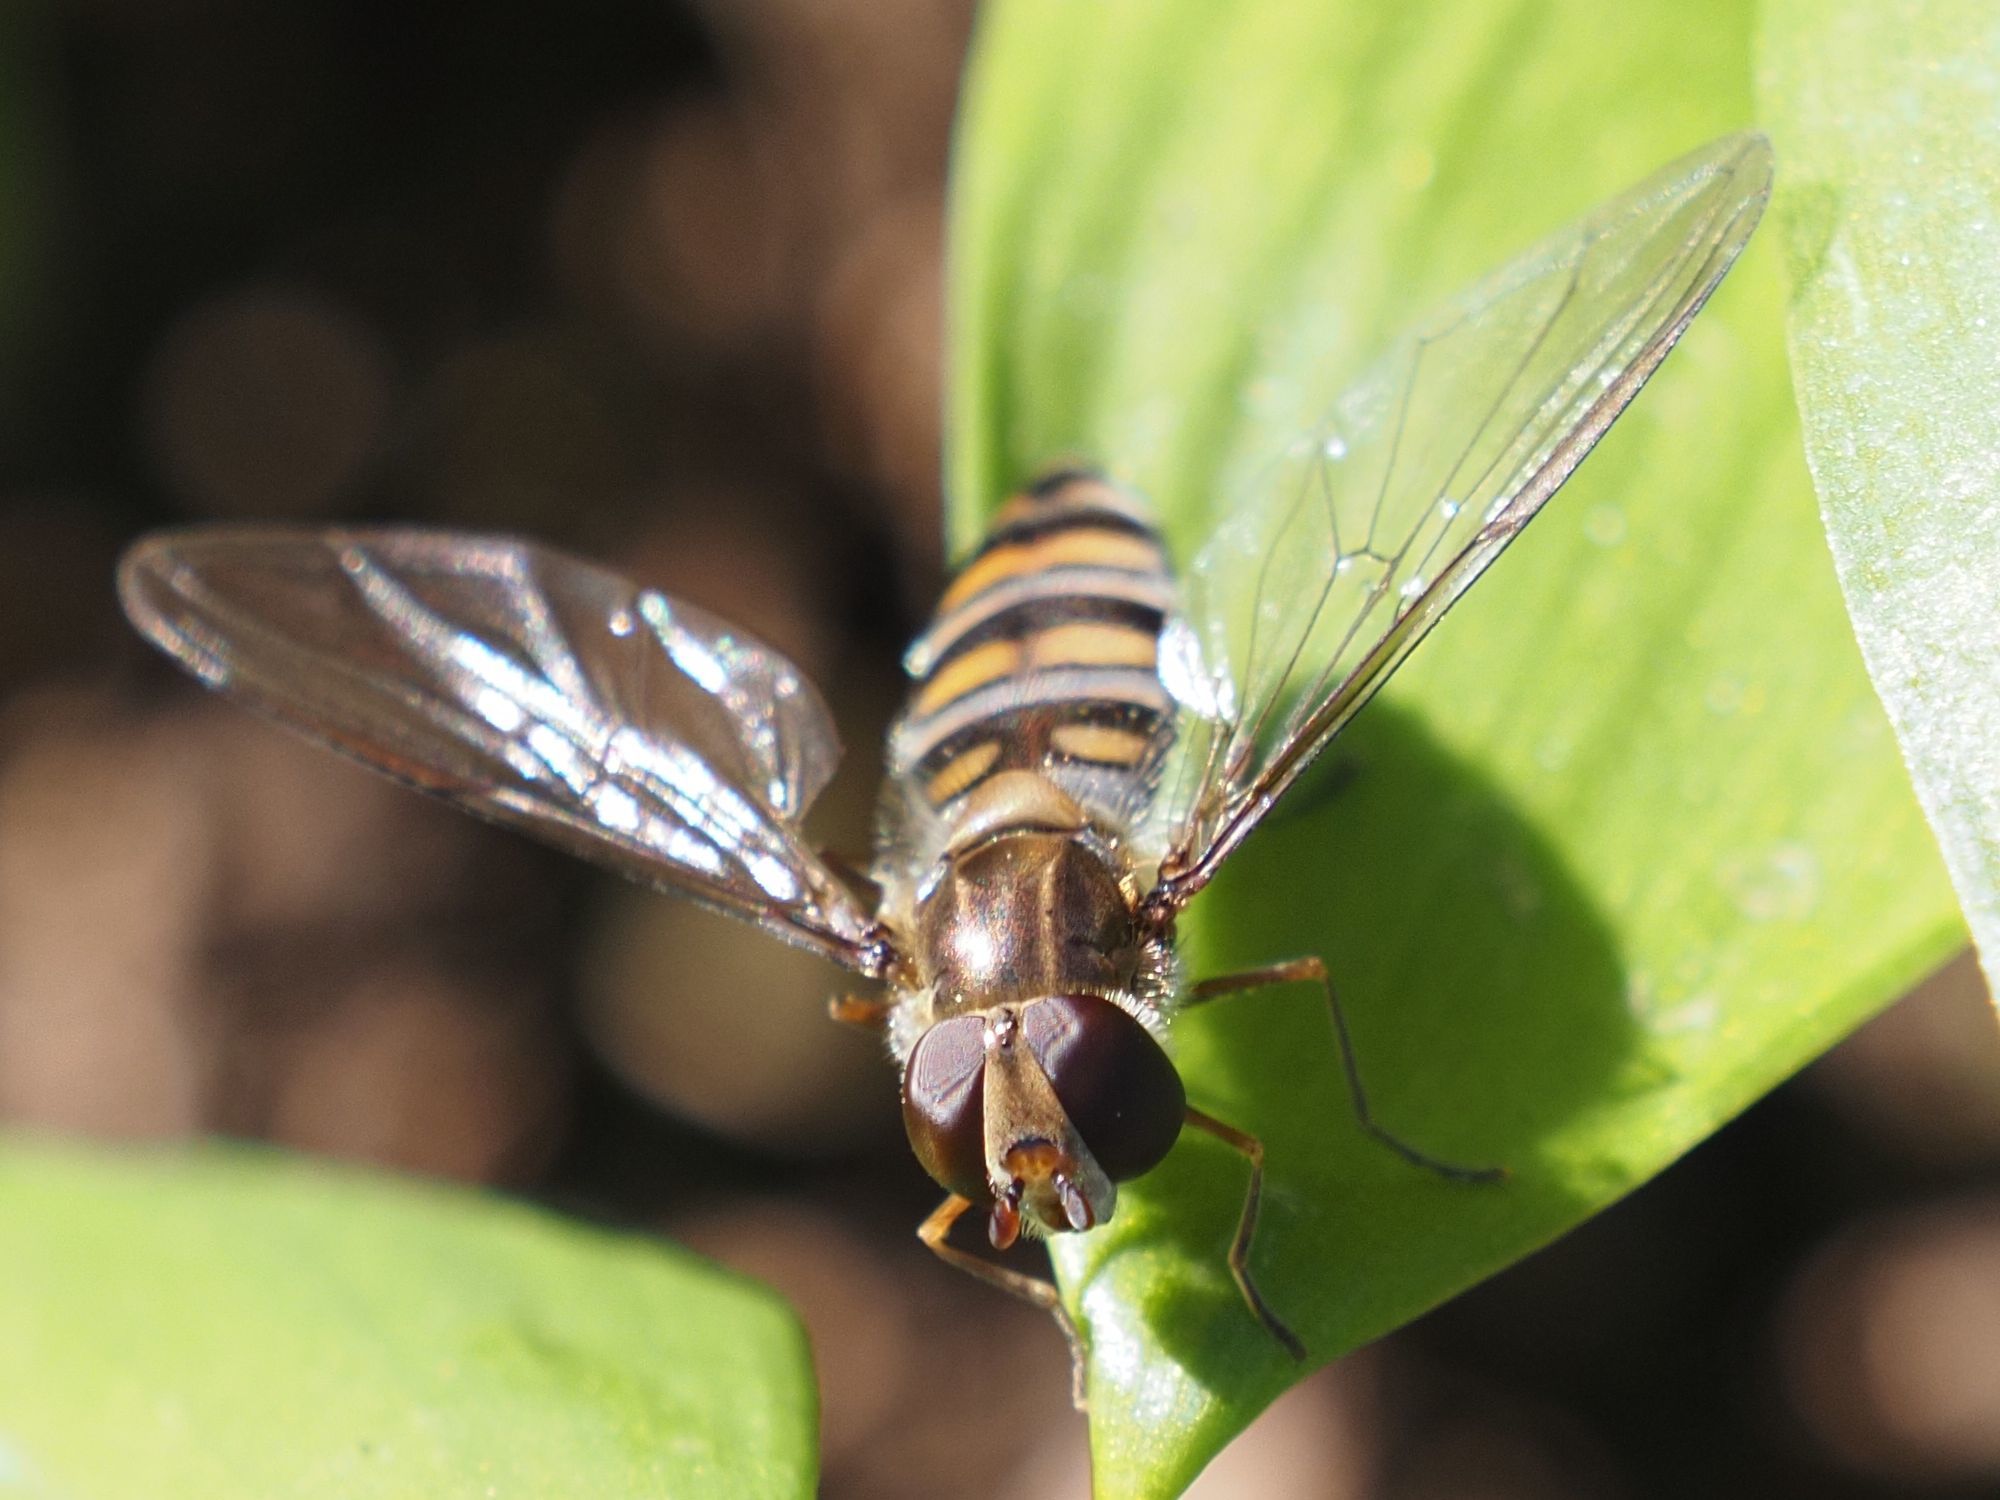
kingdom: Animalia
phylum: Arthropoda
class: Insecta
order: Diptera
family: Syrphidae
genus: Episyrphus
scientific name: Episyrphus balteatus
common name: Marmalade hoverfly
